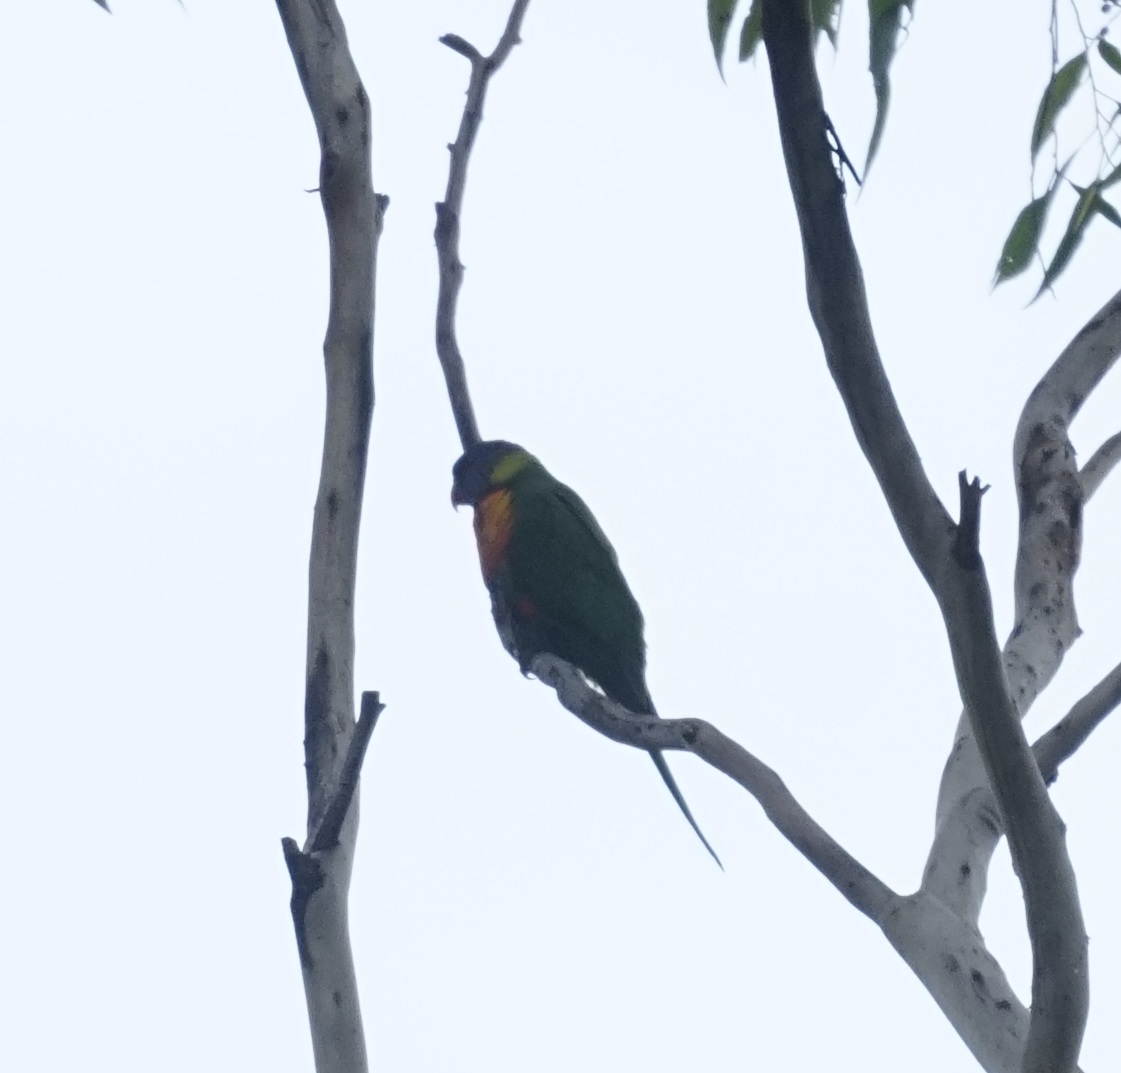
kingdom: Animalia
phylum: Chordata
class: Aves
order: Psittaciformes
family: Psittacidae
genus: Trichoglossus
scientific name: Trichoglossus haematodus
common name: Coconut lorikeet
